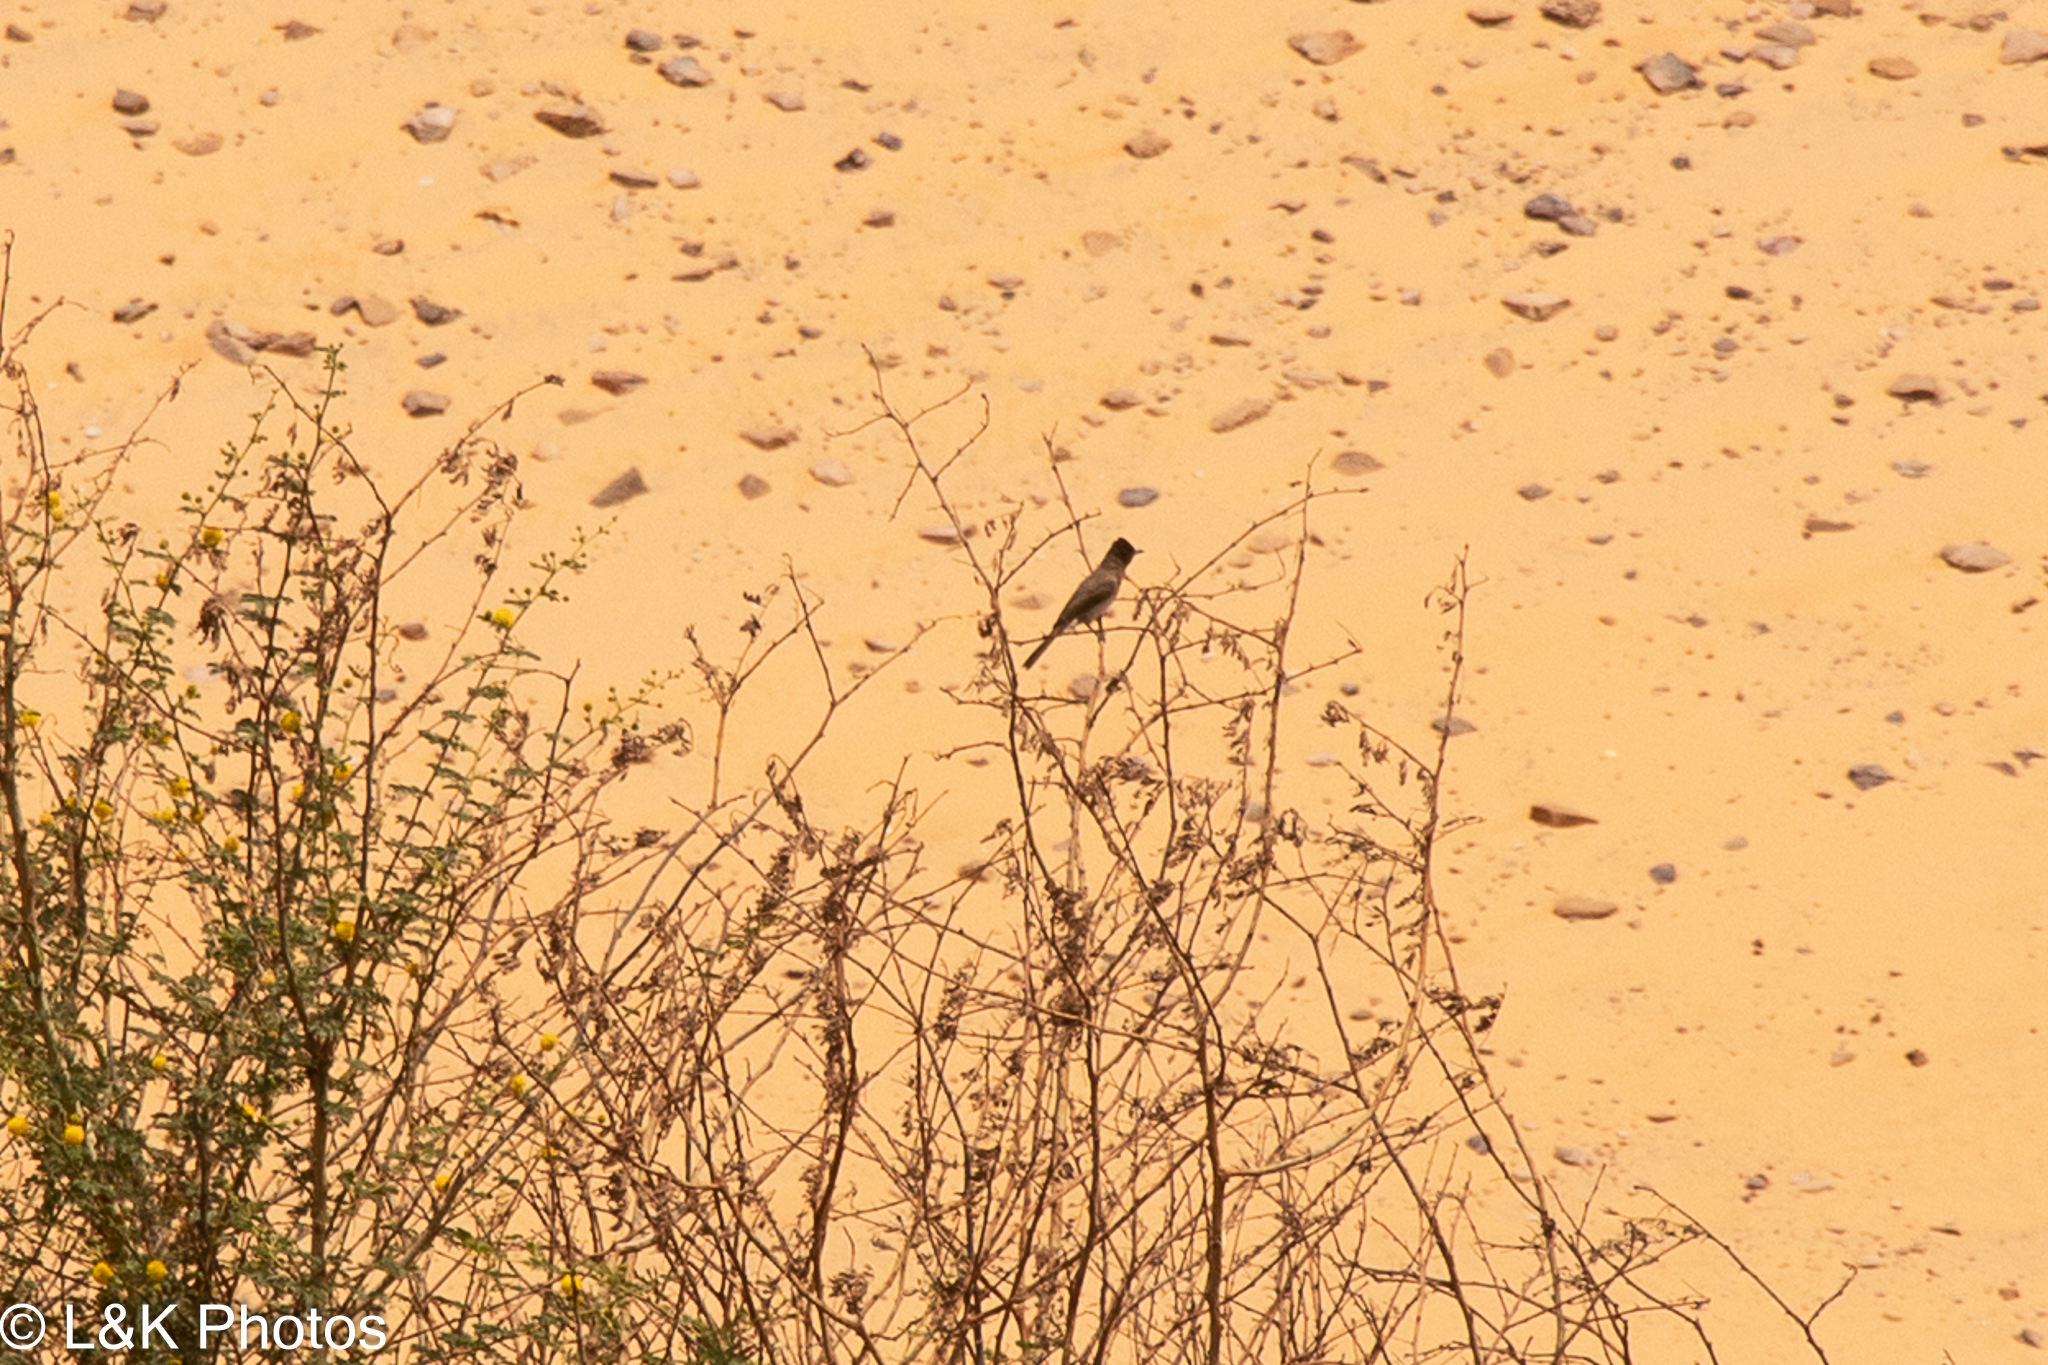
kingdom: Animalia
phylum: Chordata
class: Aves
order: Passeriformes
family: Pycnonotidae
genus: Pycnonotus
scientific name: Pycnonotus barbatus
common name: Common bulbul
